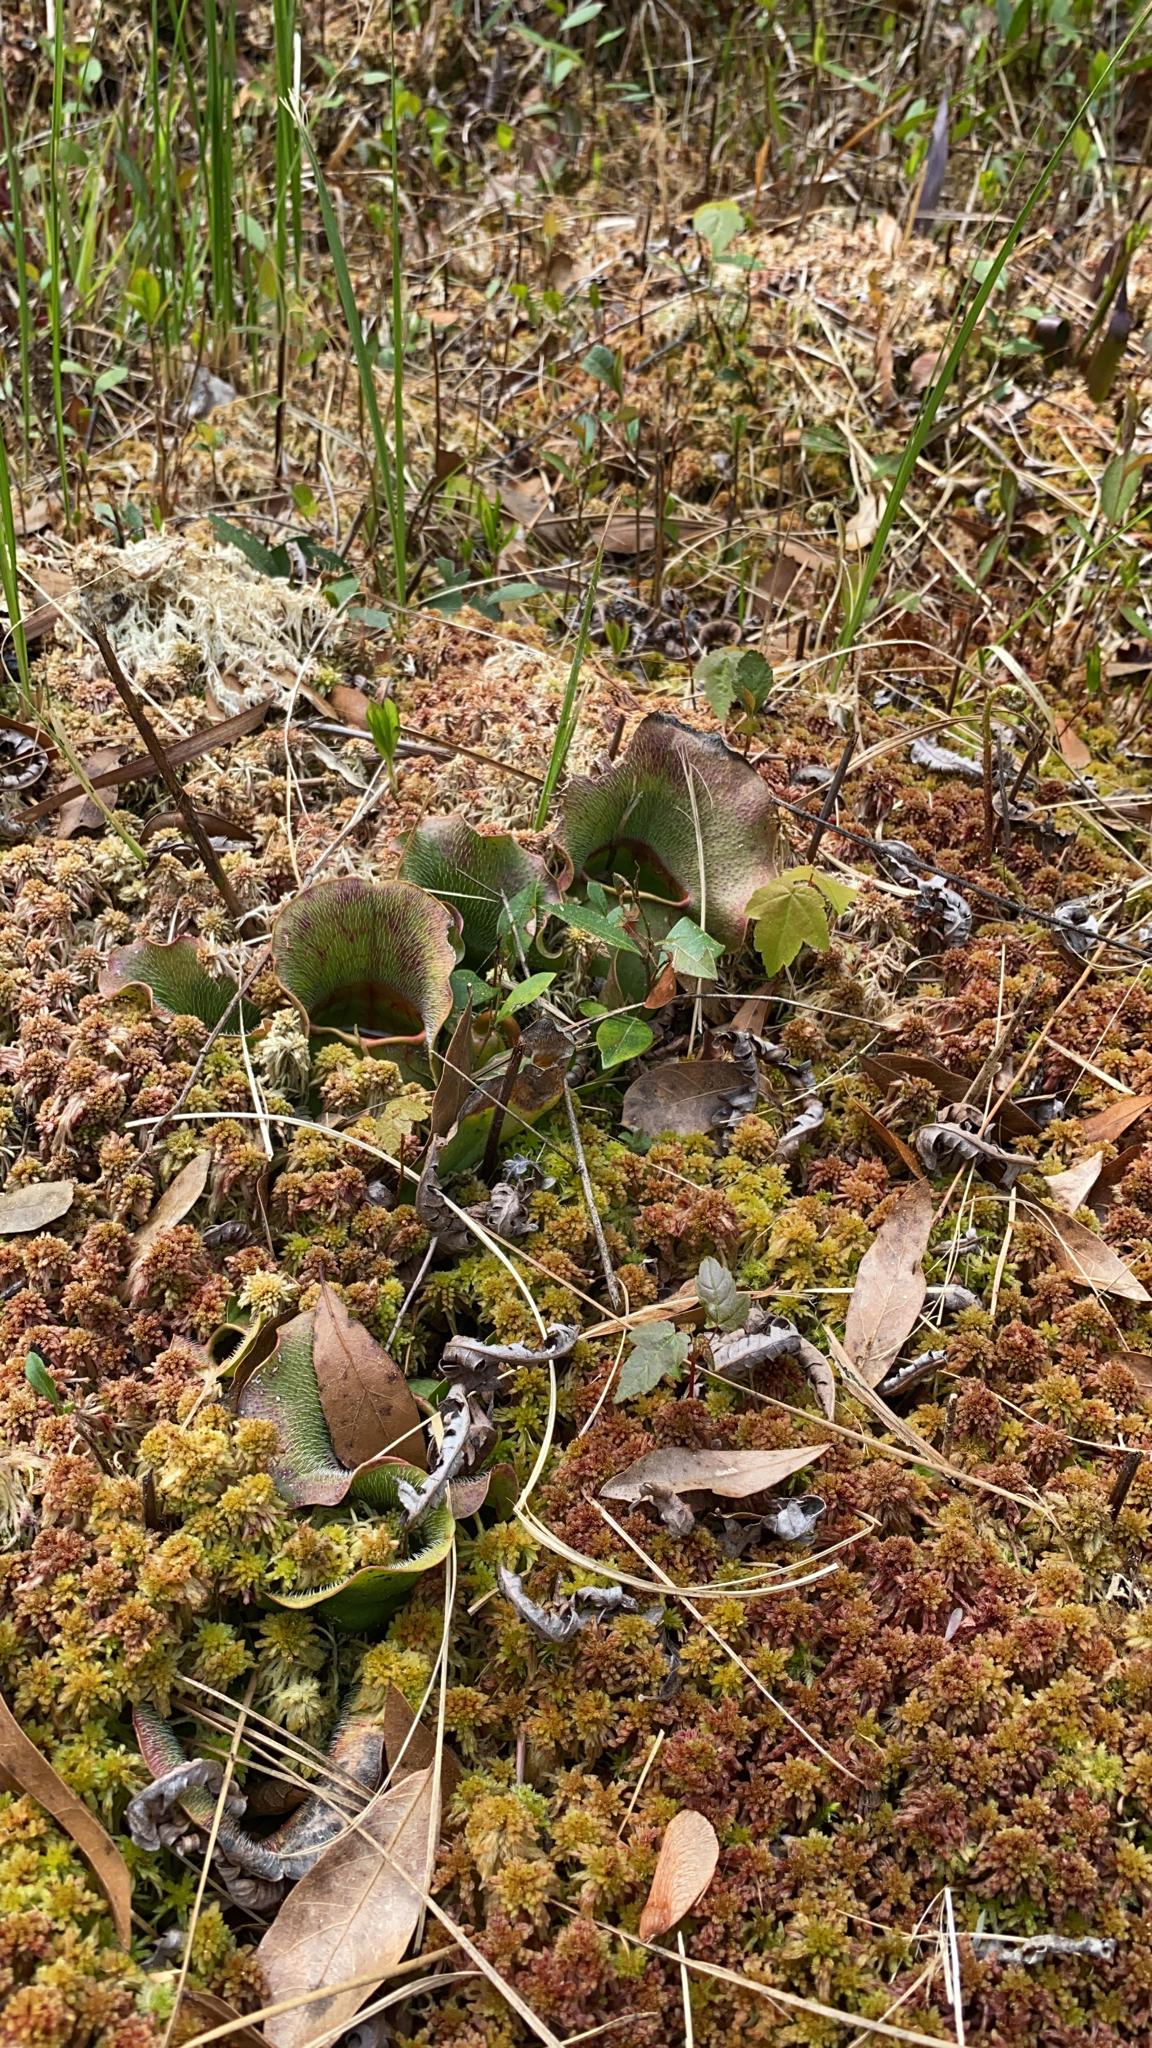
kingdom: Plantae
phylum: Tracheophyta
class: Magnoliopsida
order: Ericales
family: Sarraceniaceae
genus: Sarracenia
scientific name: Sarracenia purpurea
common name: Pitcherplant
